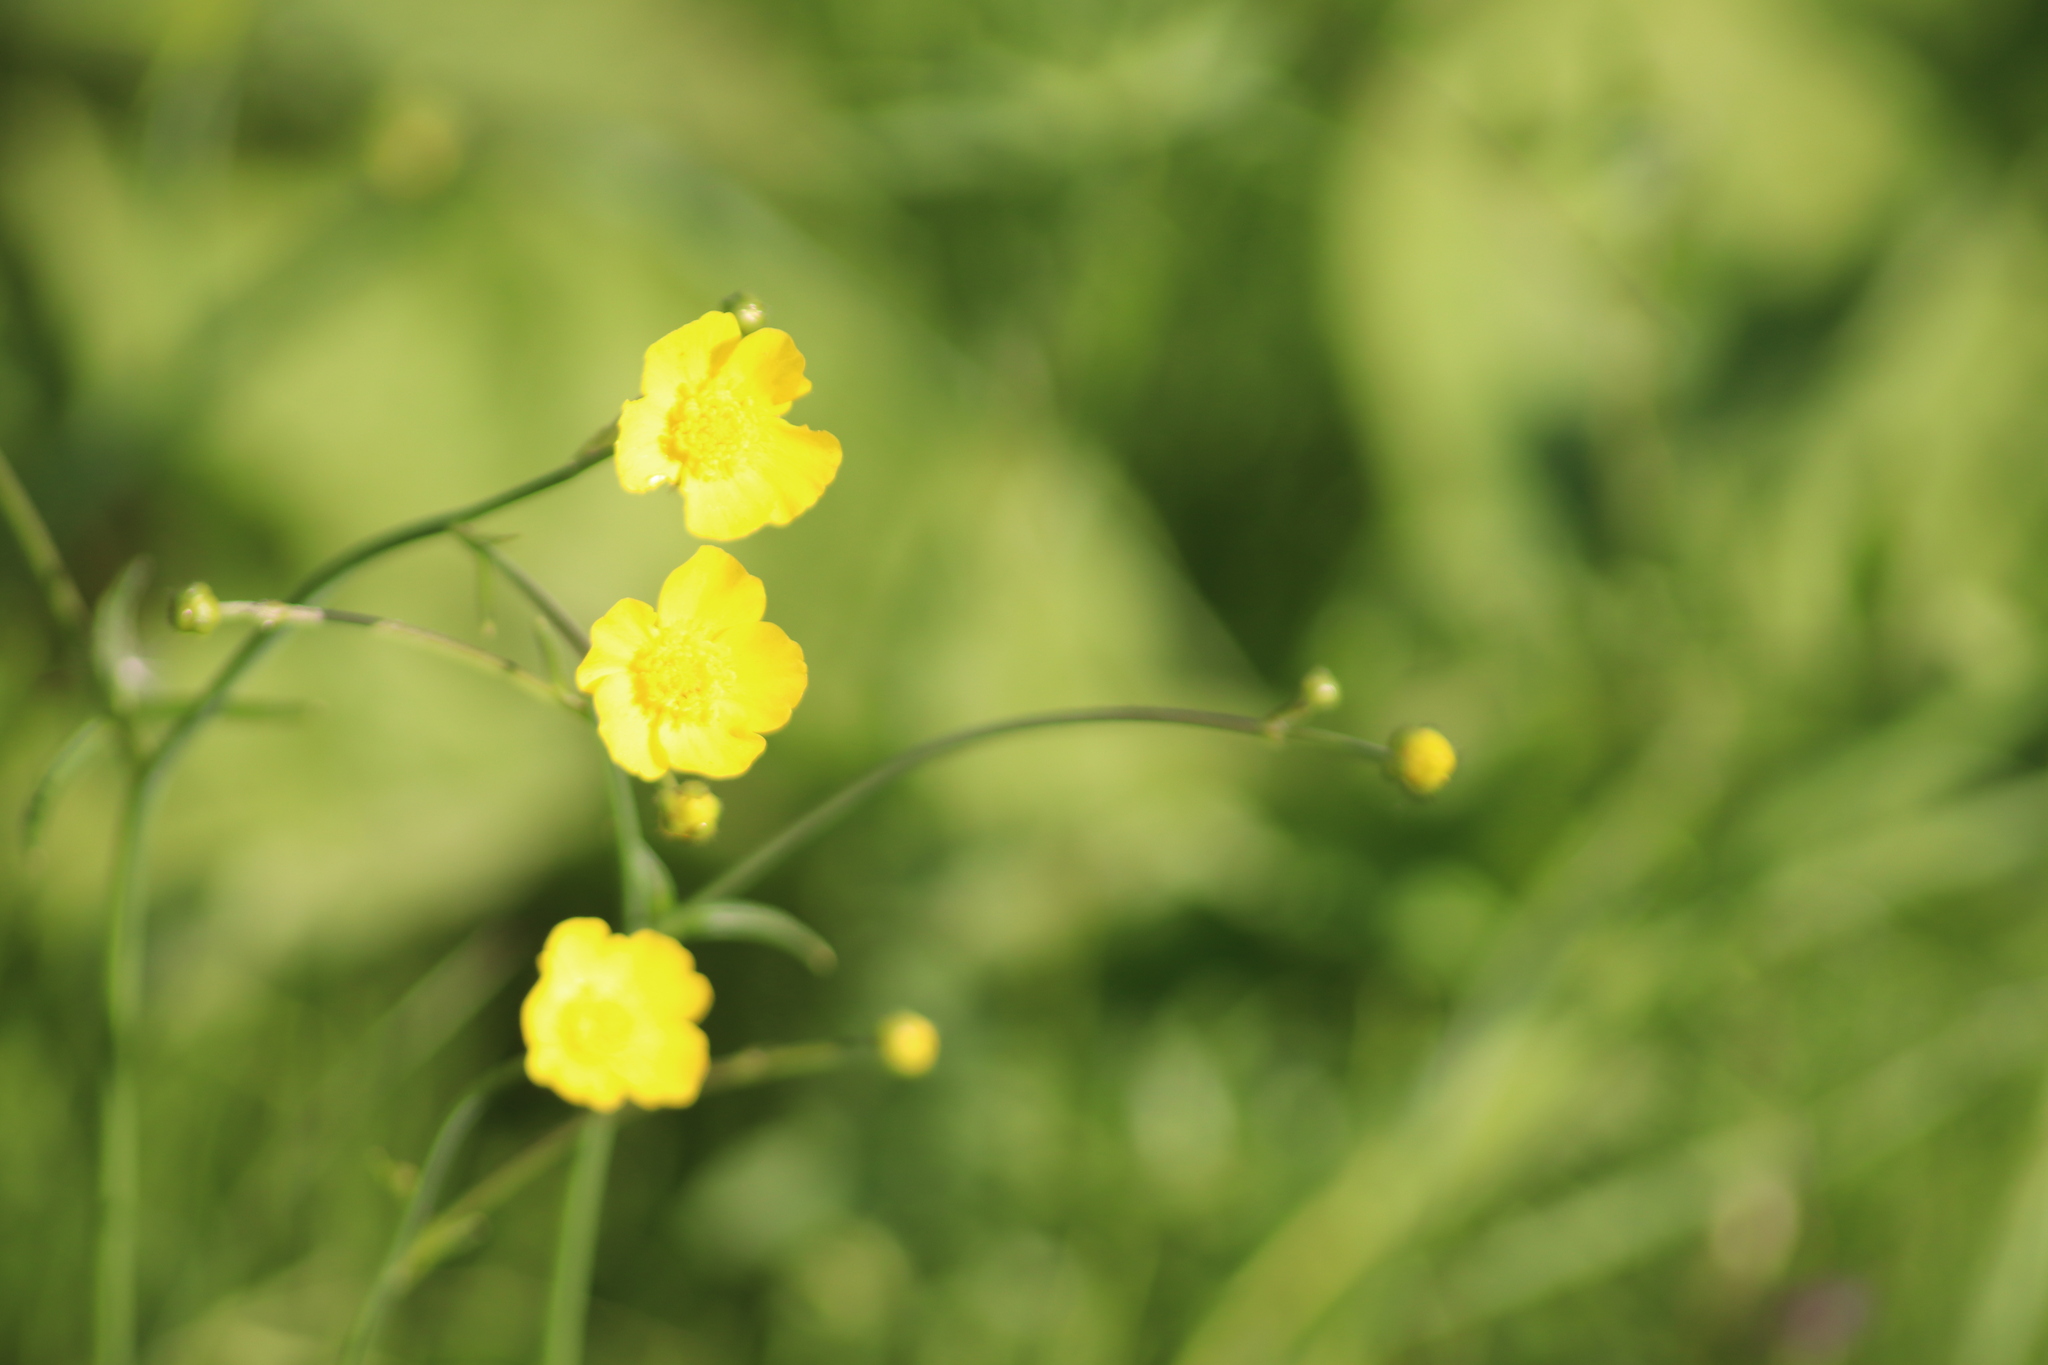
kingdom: Plantae
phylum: Tracheophyta
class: Magnoliopsida
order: Ranunculales
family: Ranunculaceae
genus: Ranunculus
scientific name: Ranunculus acris
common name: Meadow buttercup
